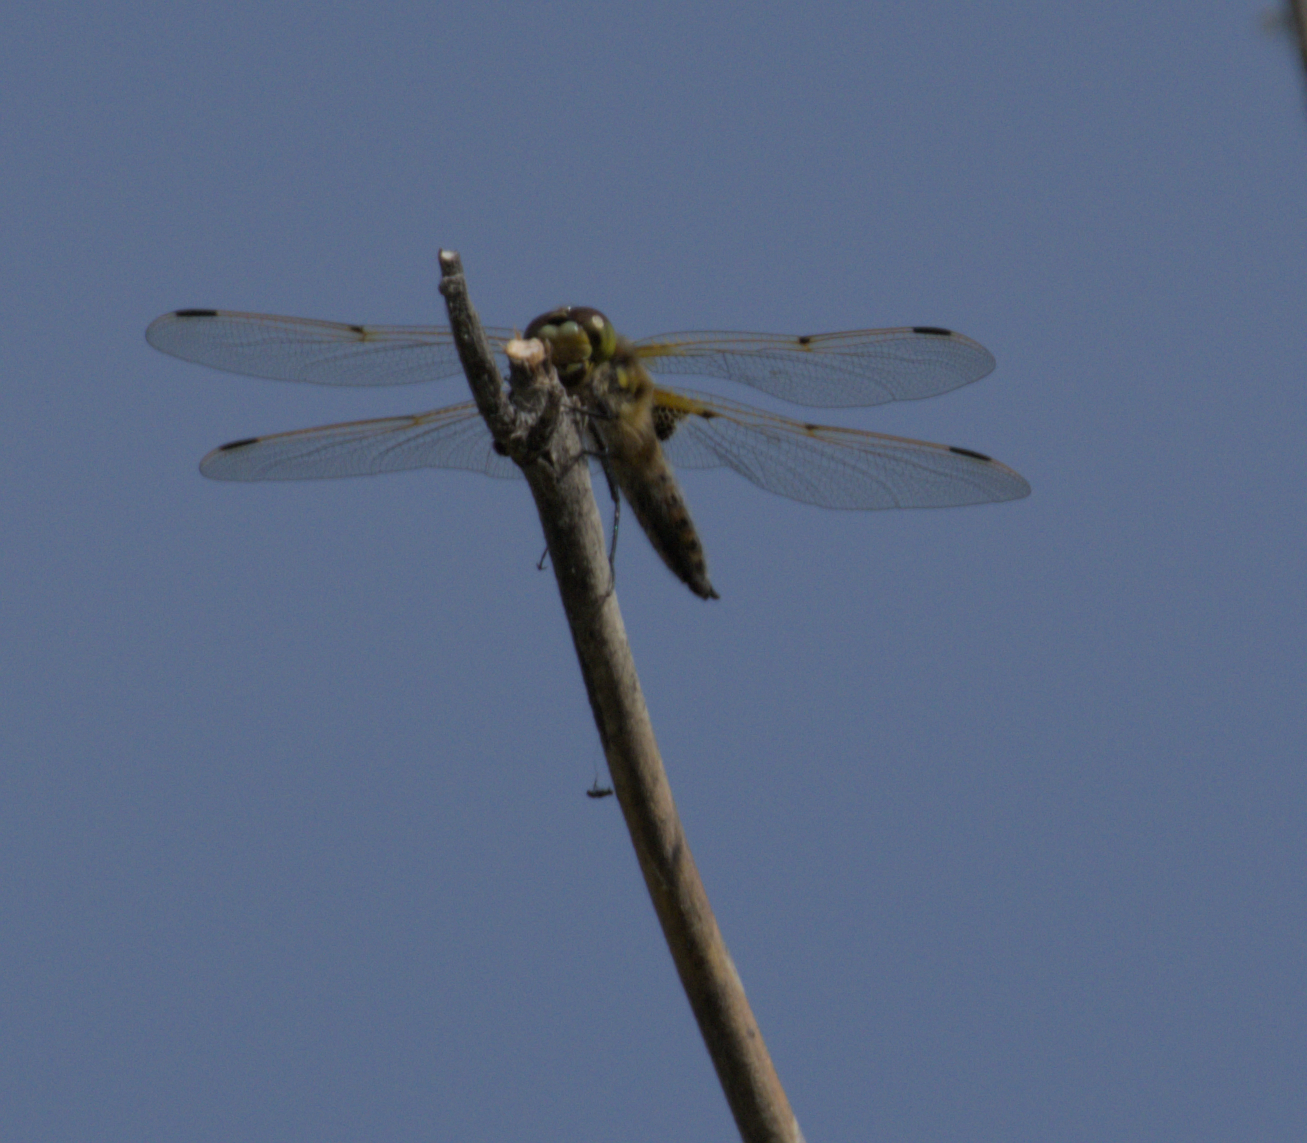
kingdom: Animalia
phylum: Arthropoda
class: Insecta
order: Odonata
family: Libellulidae
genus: Libellula
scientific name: Libellula quadrimaculata
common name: Four-spotted chaser
